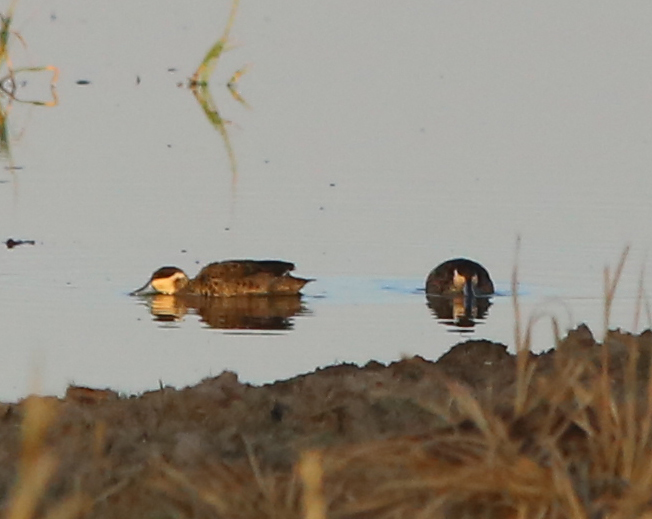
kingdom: Animalia
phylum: Chordata
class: Aves
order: Anseriformes
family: Anatidae
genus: Spatula
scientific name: Spatula hottentota
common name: Blue-billed teal
